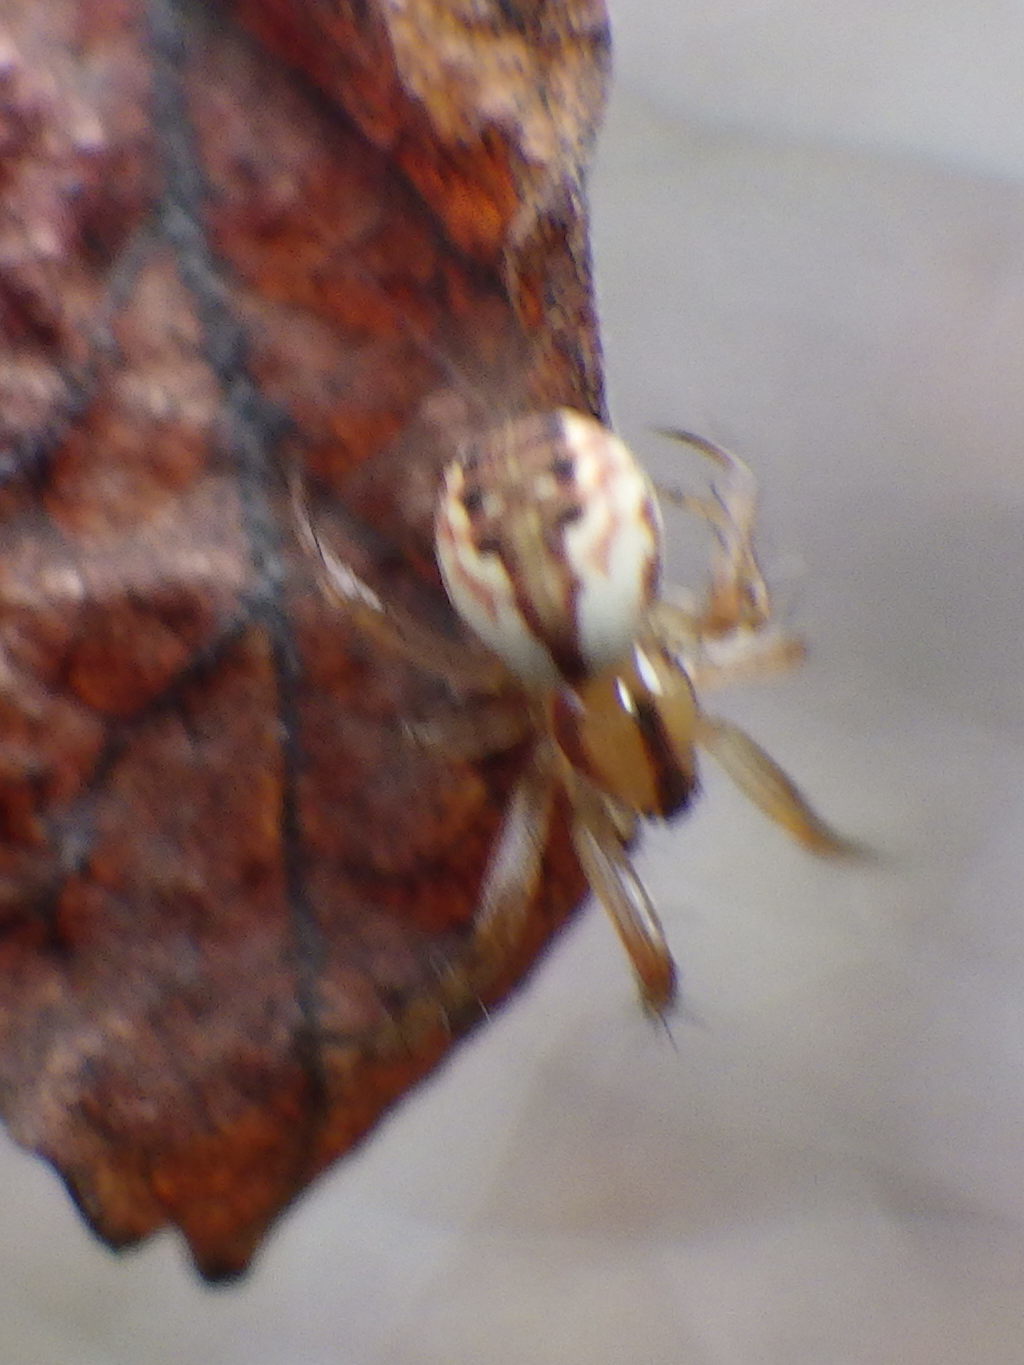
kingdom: Animalia
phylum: Arthropoda
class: Arachnida
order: Araneae
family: Araneidae
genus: Mangora
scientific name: Mangora placida
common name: Tuft-legged orbweaver
